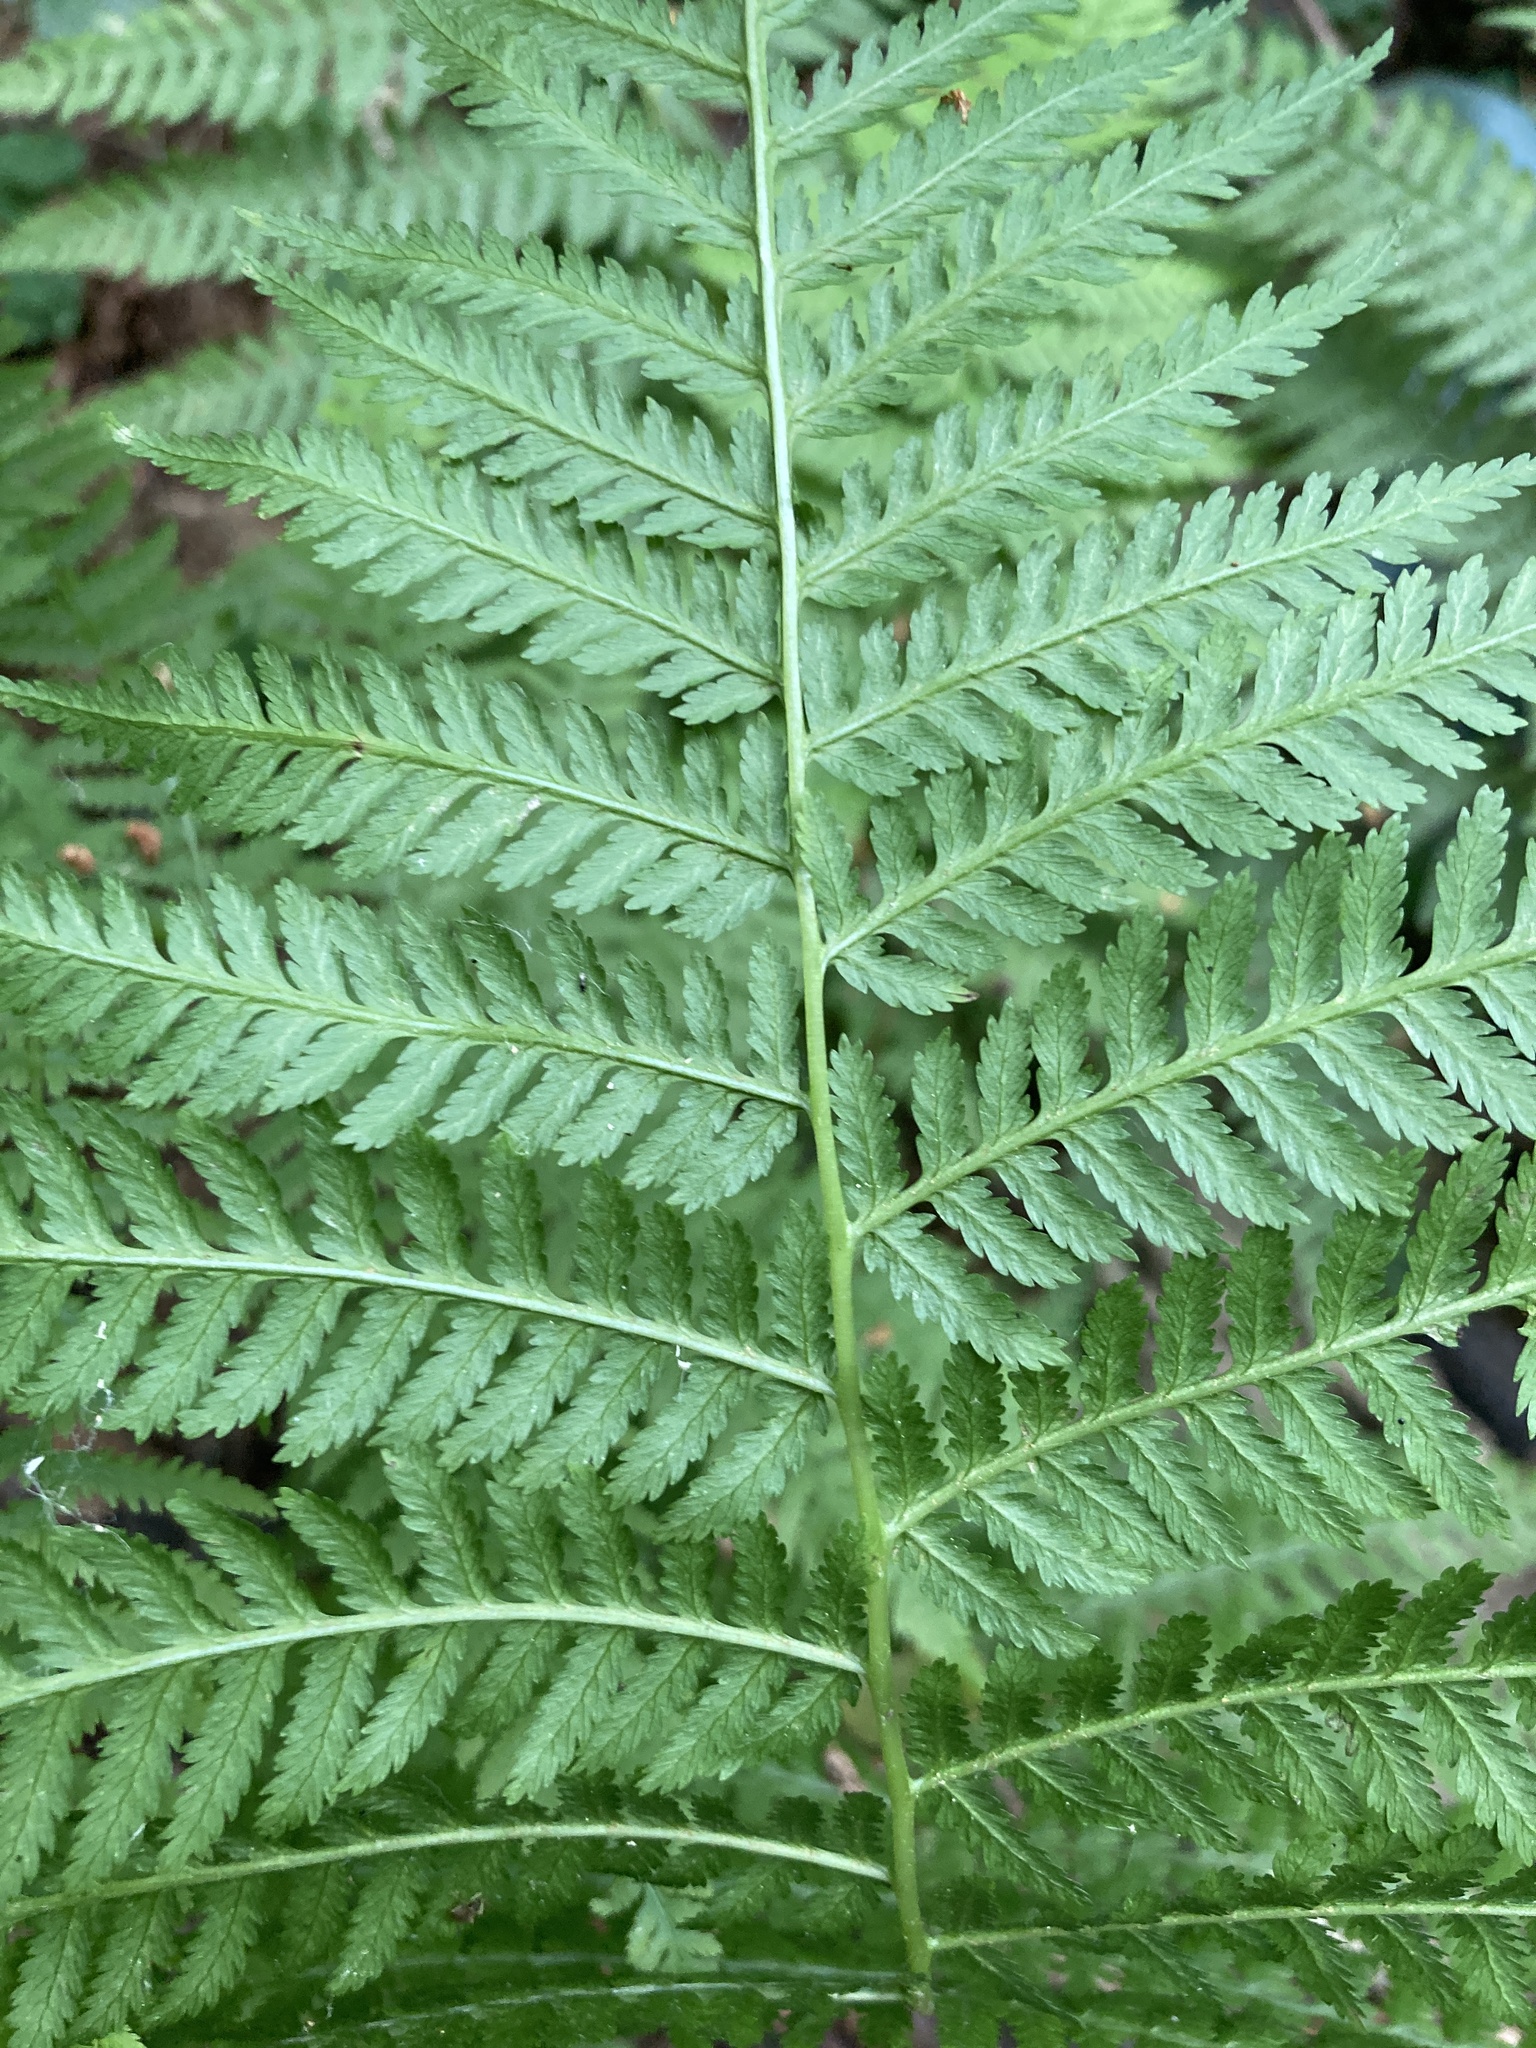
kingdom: Plantae
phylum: Tracheophyta
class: Polypodiopsida
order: Polypodiales
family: Athyriaceae
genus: Athyrium
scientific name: Athyrium filix-femina
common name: Lady fern
